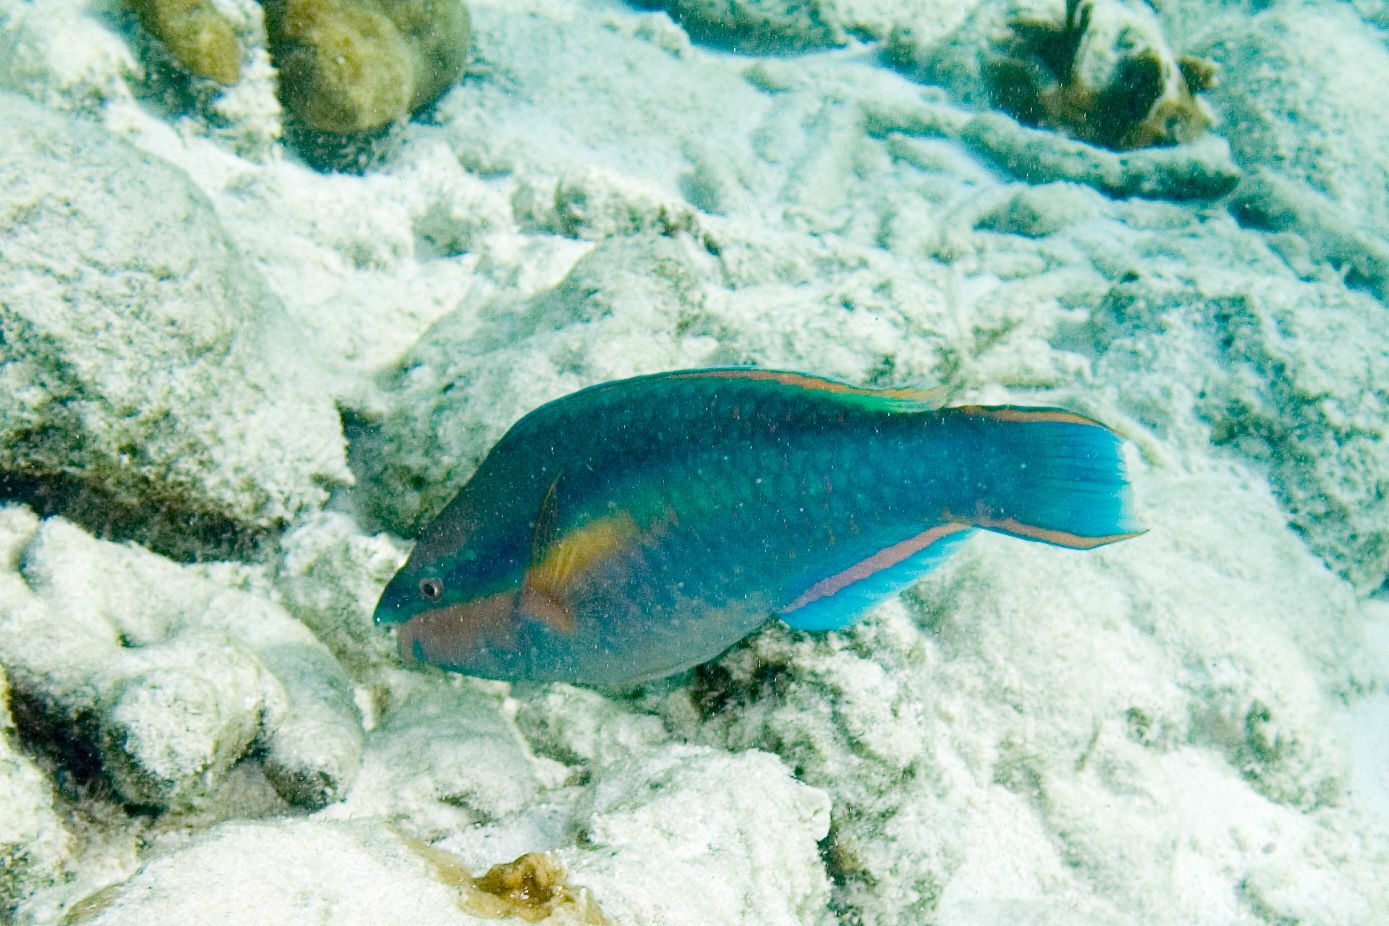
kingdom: Animalia
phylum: Chordata
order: Perciformes
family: Scaridae
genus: Scarus
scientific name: Scarus taeniopterus
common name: Princess parrotfish
